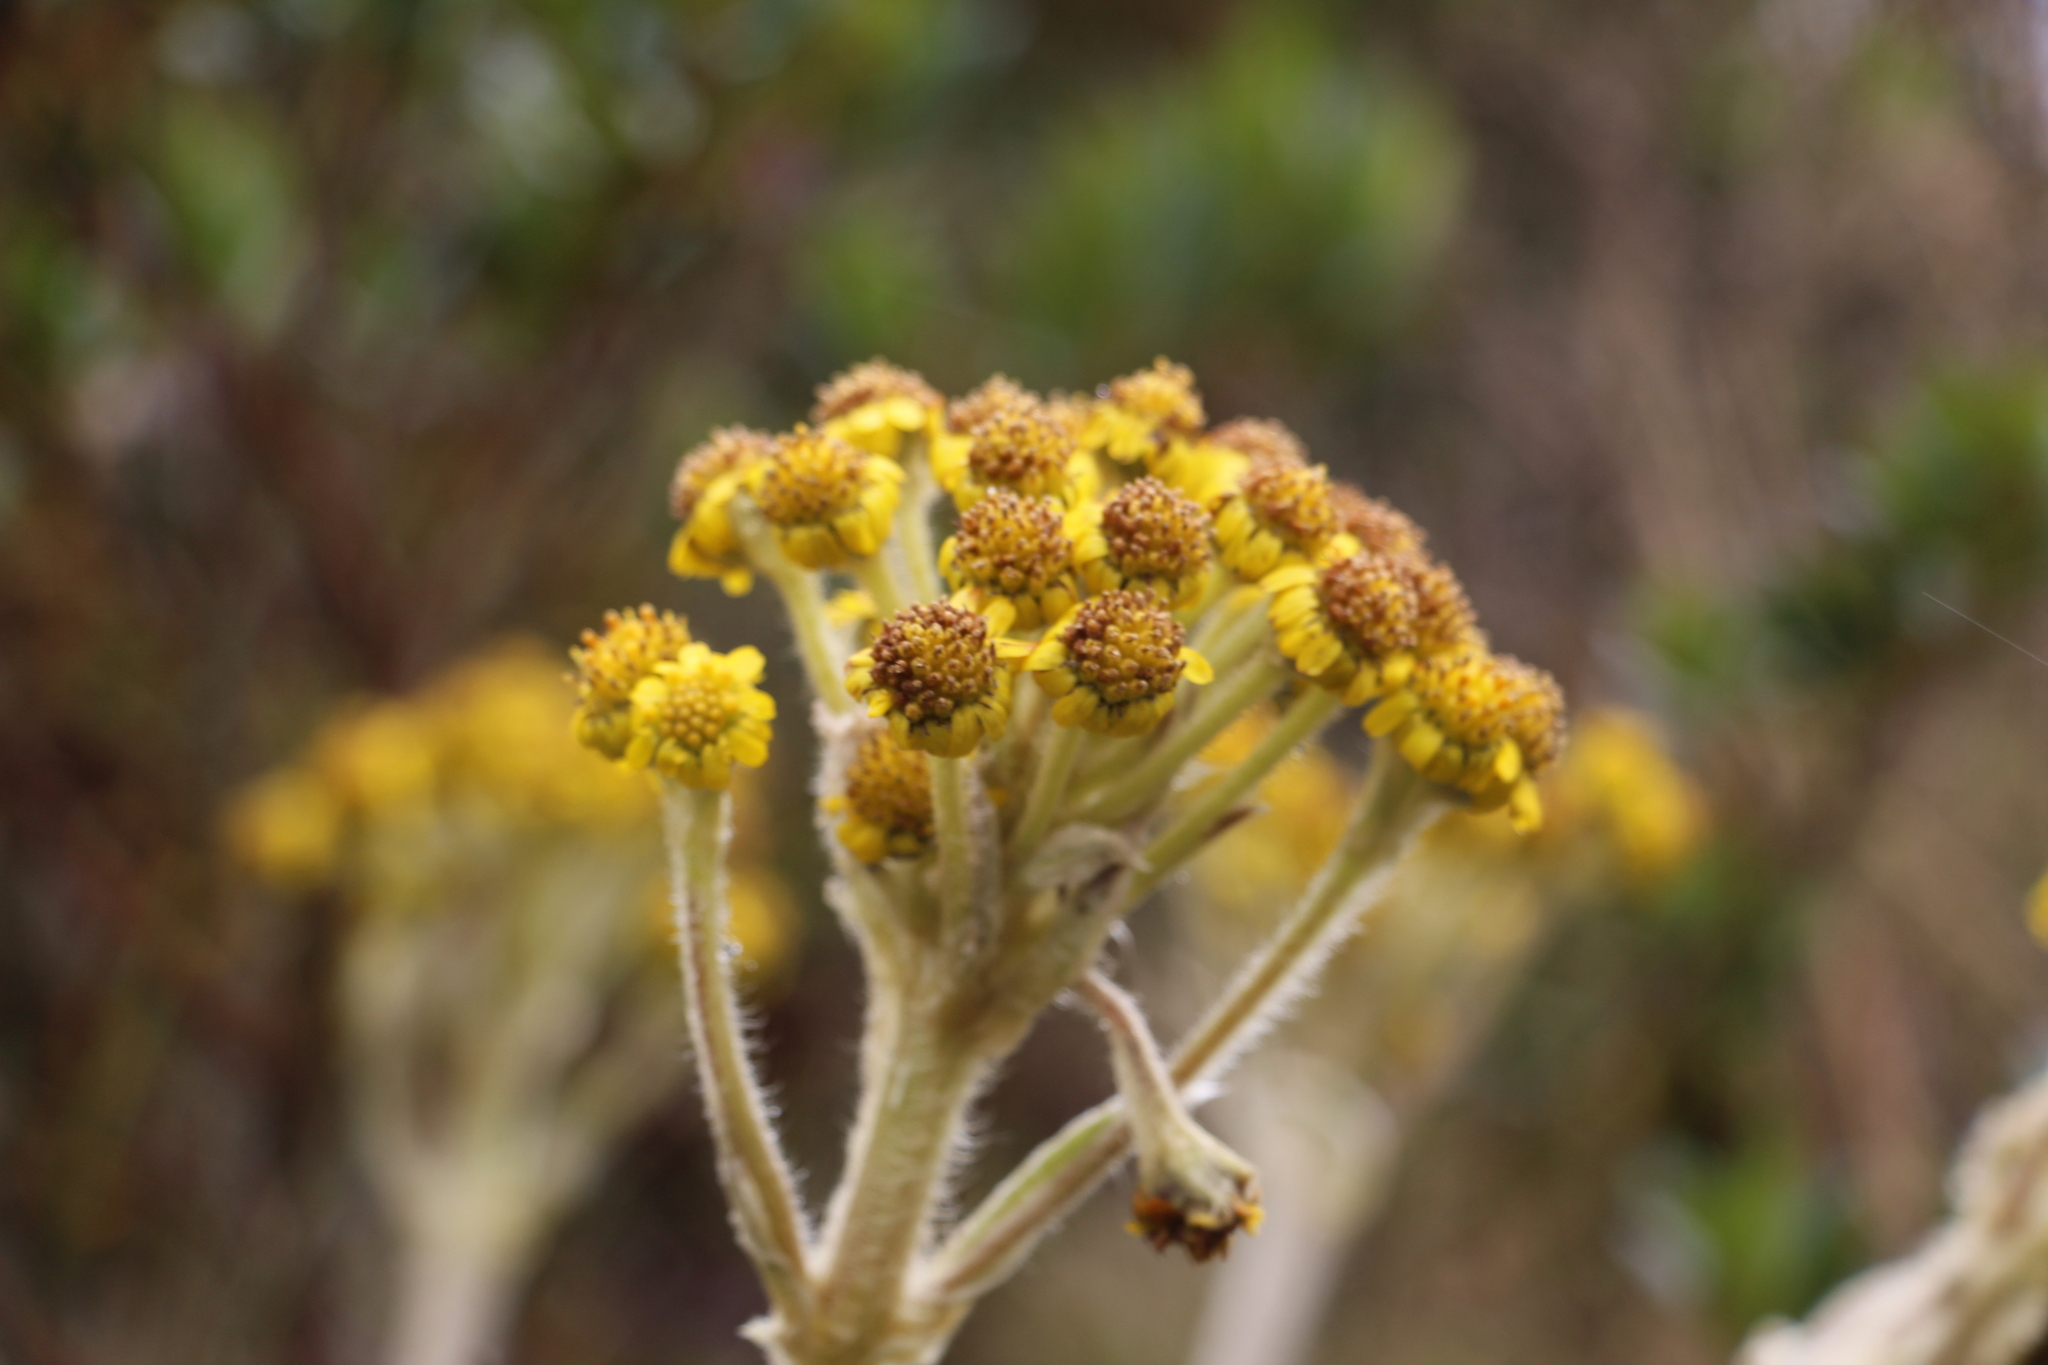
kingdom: Plantae
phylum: Tracheophyta
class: Magnoliopsida
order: Asterales
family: Asteraceae
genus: Espeletia
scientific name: Espeletia corymbosa
